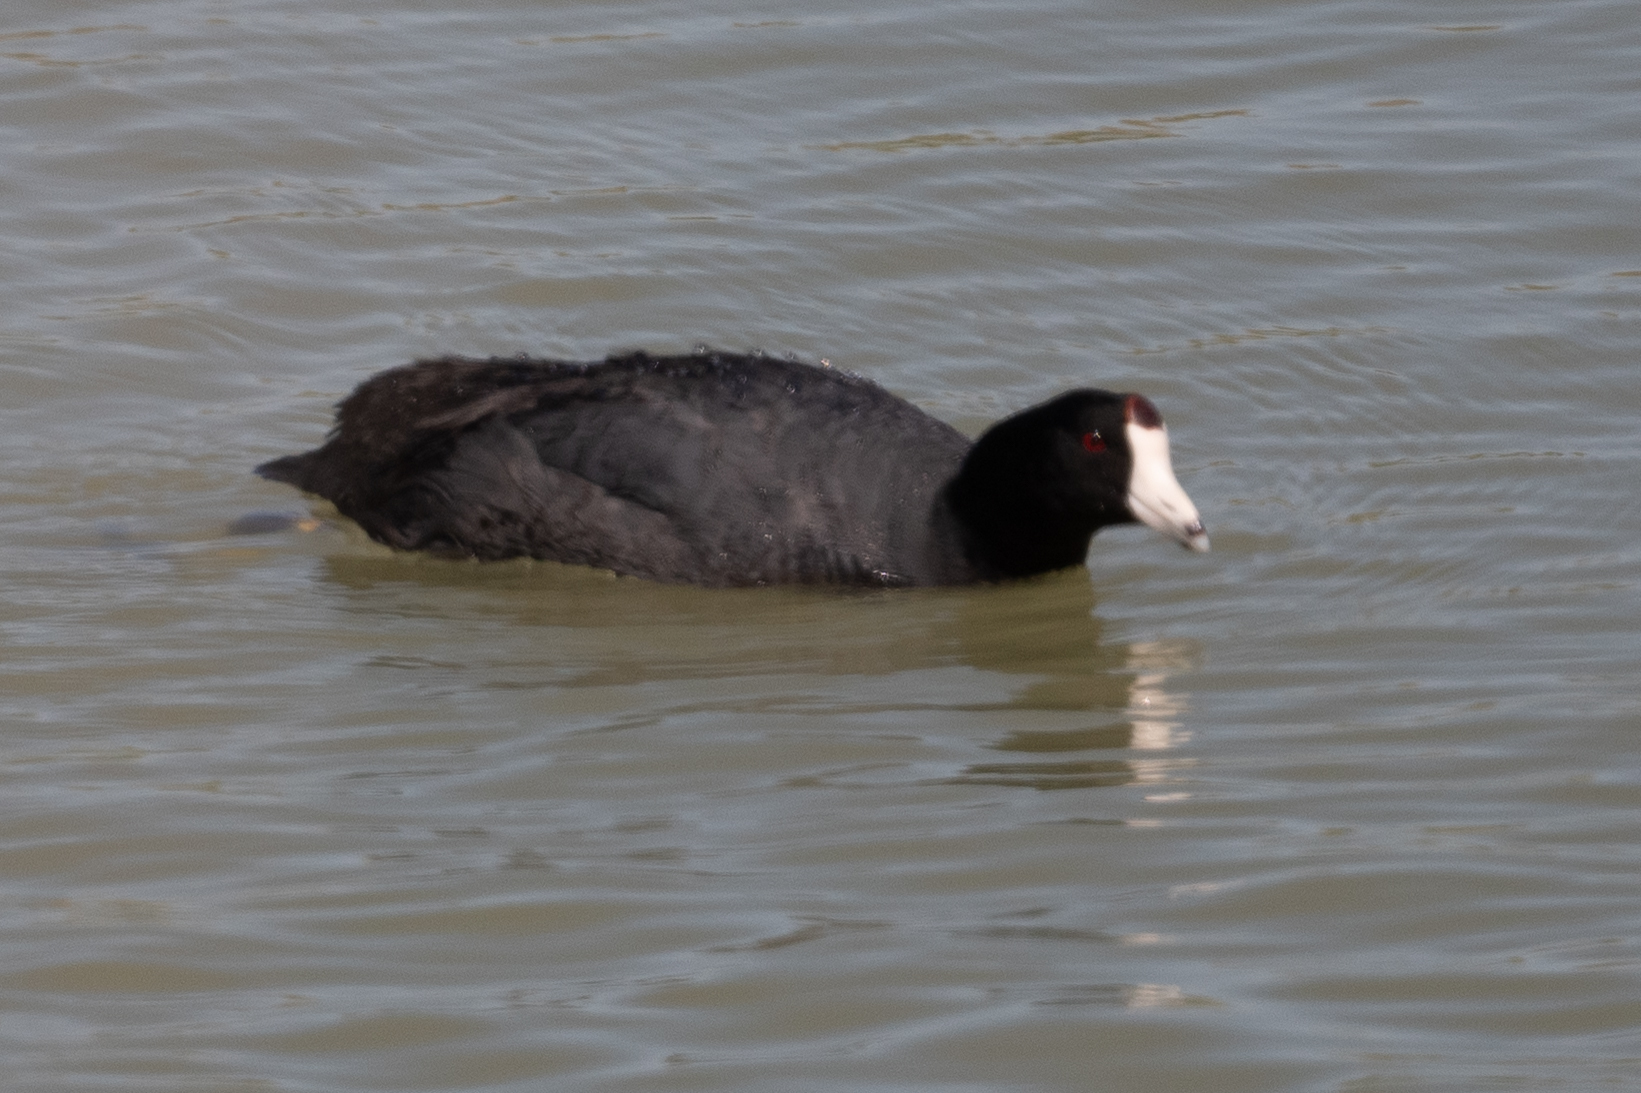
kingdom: Animalia
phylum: Chordata
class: Aves
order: Gruiformes
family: Rallidae
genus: Fulica
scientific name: Fulica americana
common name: American coot
